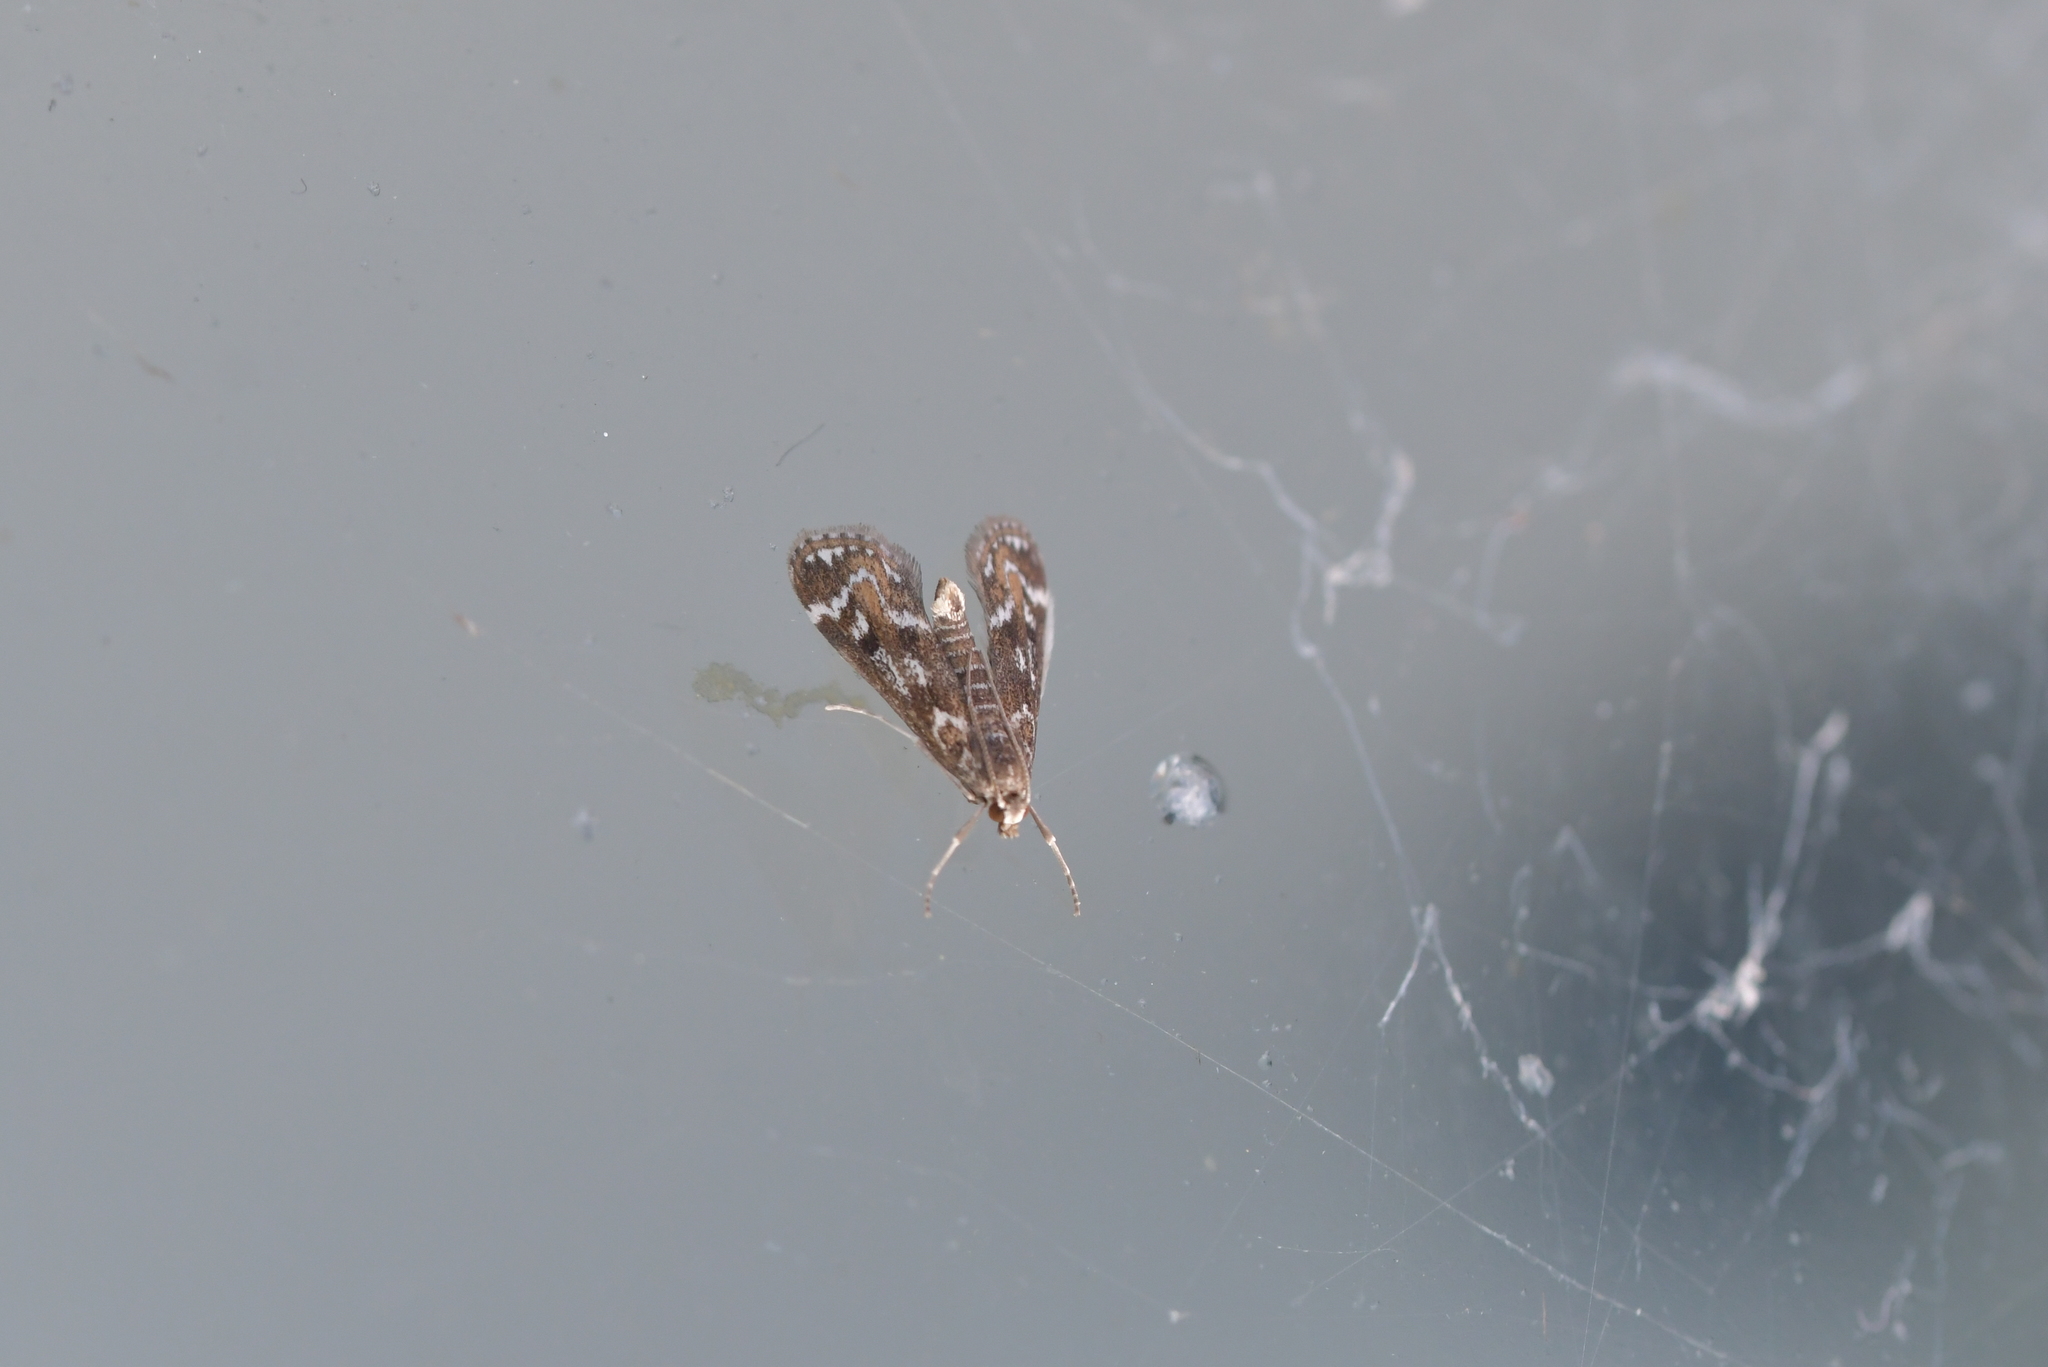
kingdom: Animalia
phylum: Arthropoda
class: Insecta
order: Lepidoptera
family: Crambidae
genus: Hygraula
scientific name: Hygraula nitens
